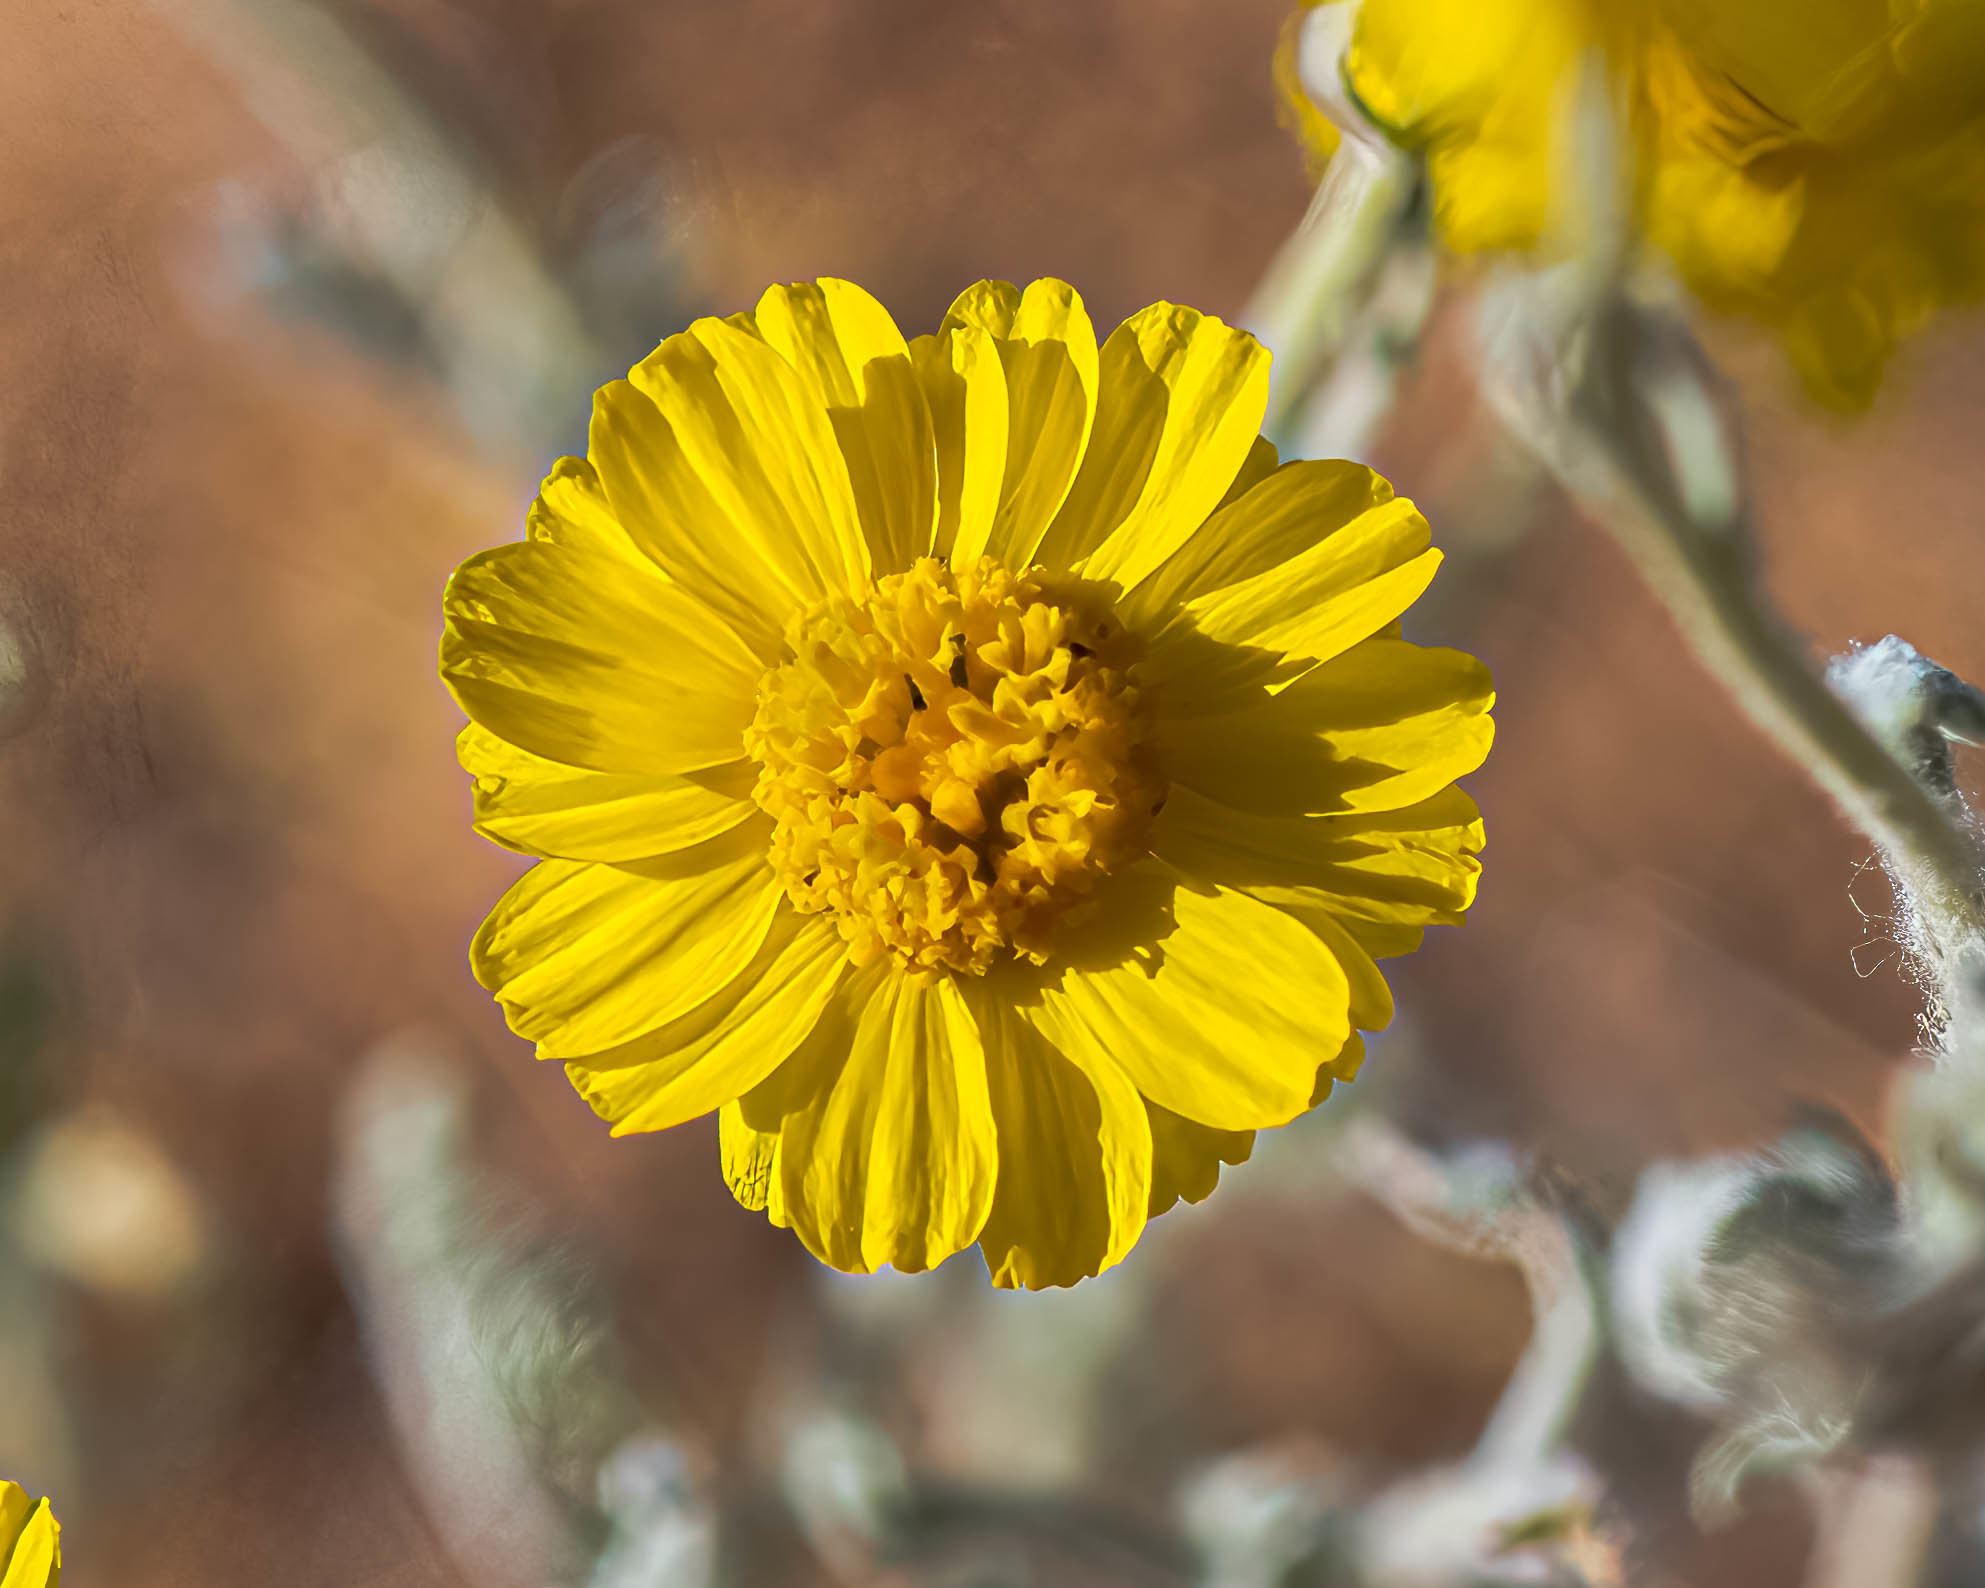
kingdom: Plantae
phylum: Tracheophyta
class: Magnoliopsida
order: Asterales
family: Asteraceae
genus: Baileya
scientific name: Baileya multiradiata
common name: Desert-marigold
